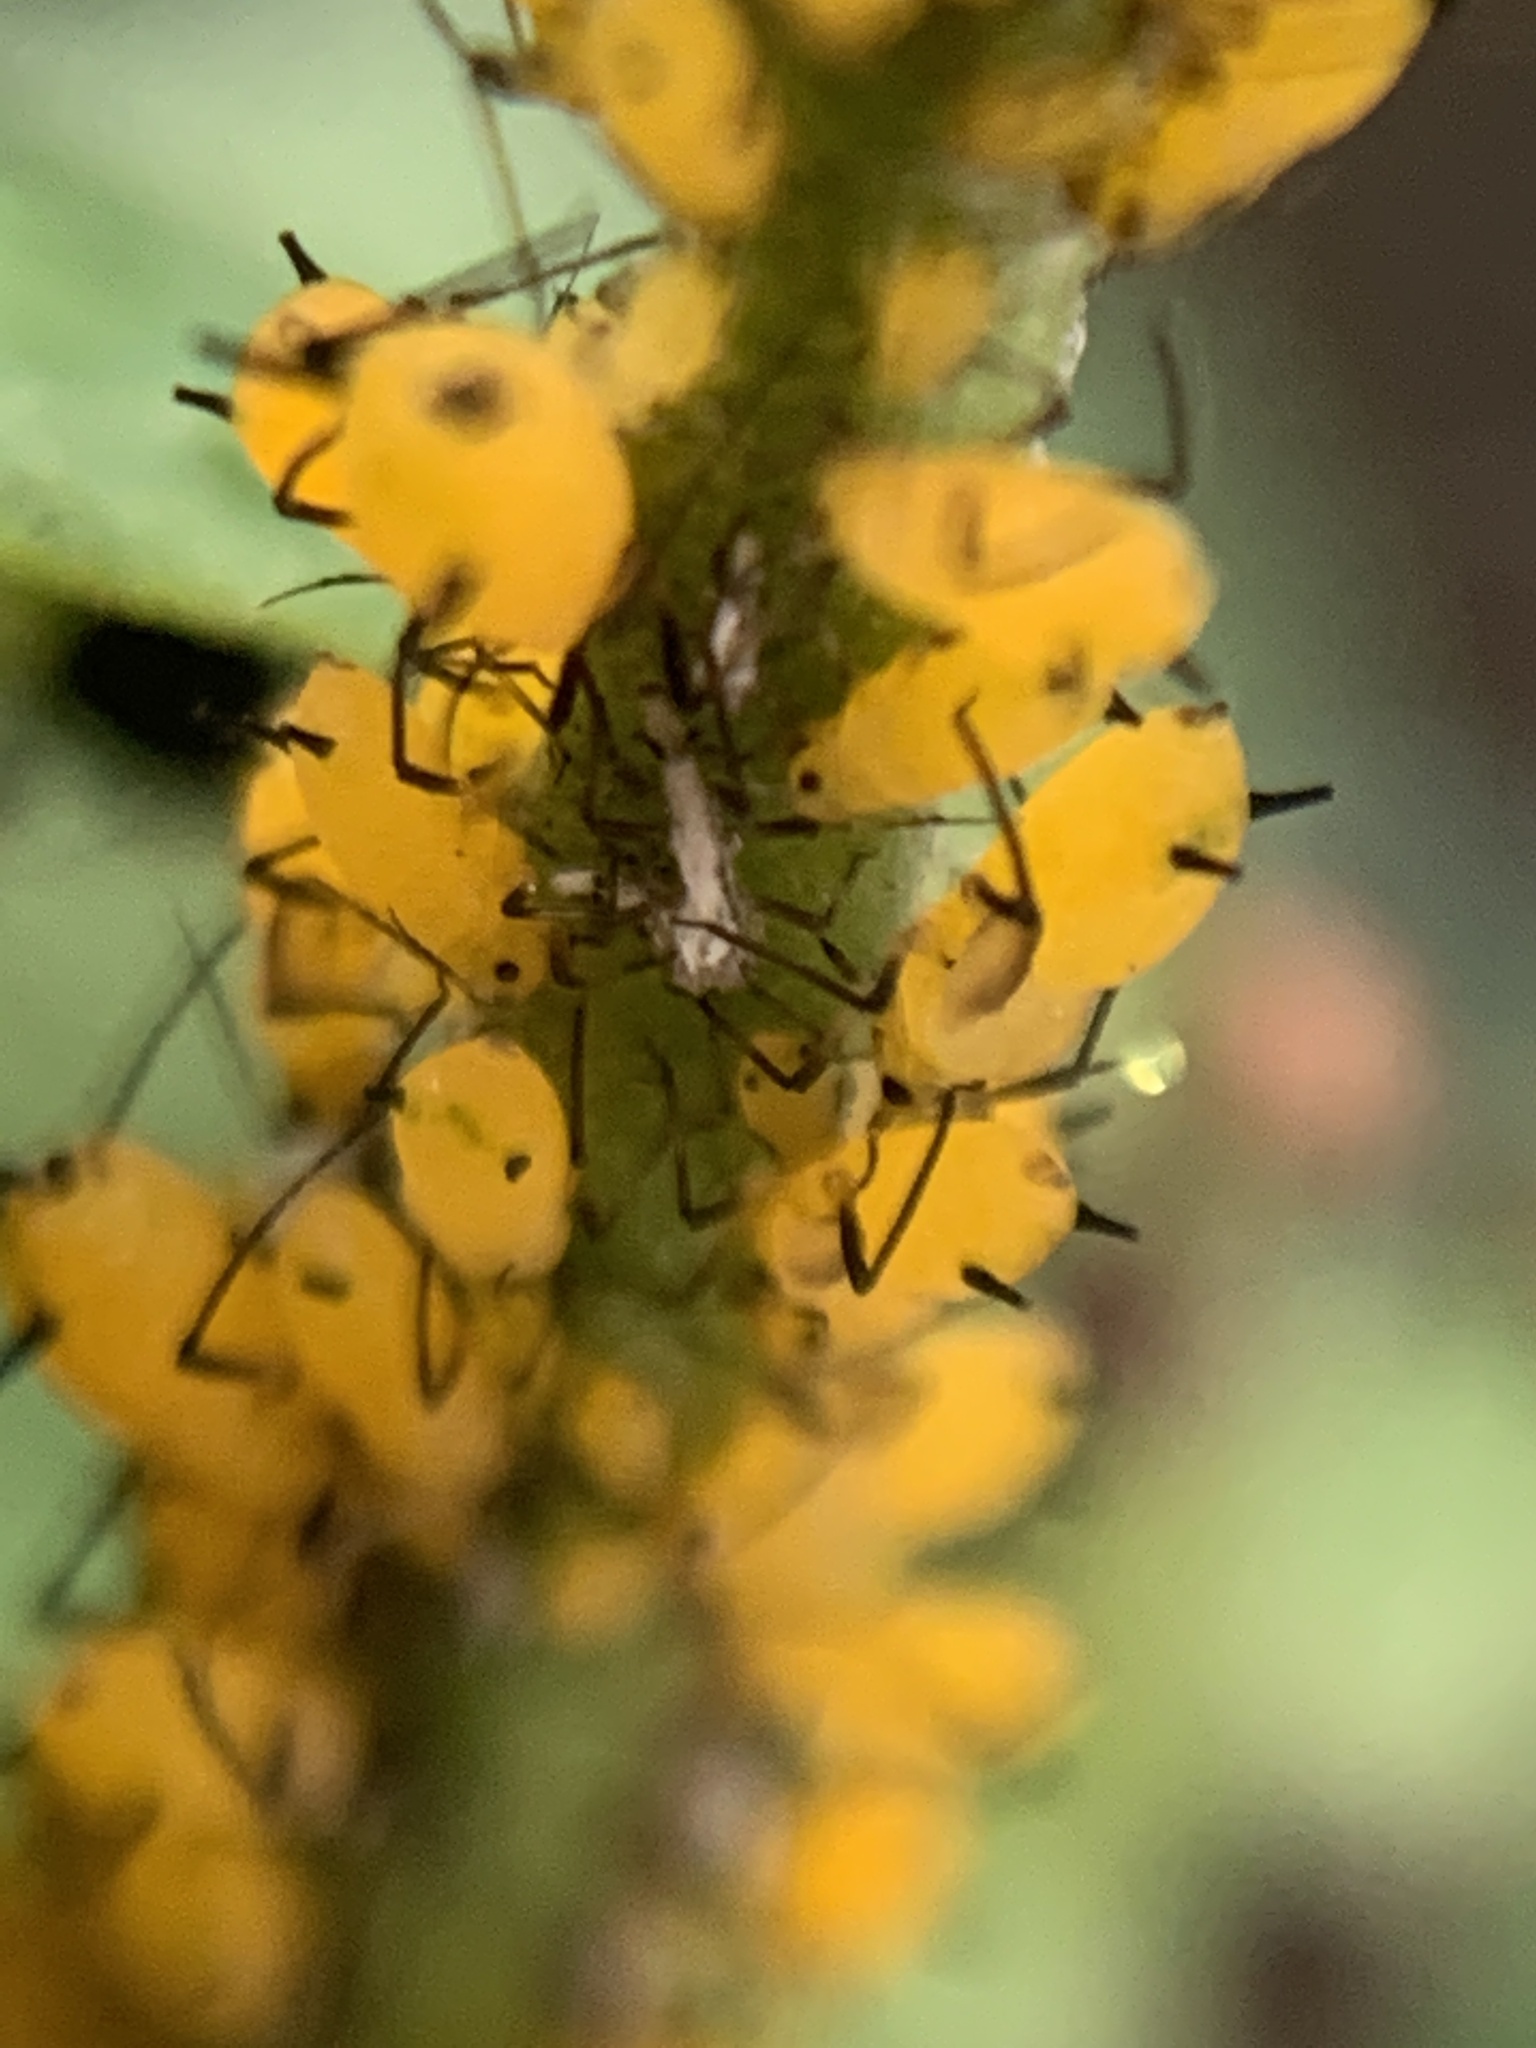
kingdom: Animalia
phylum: Arthropoda
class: Insecta
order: Hemiptera
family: Aphididae
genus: Aphis
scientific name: Aphis nerii
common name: Oleander aphid
